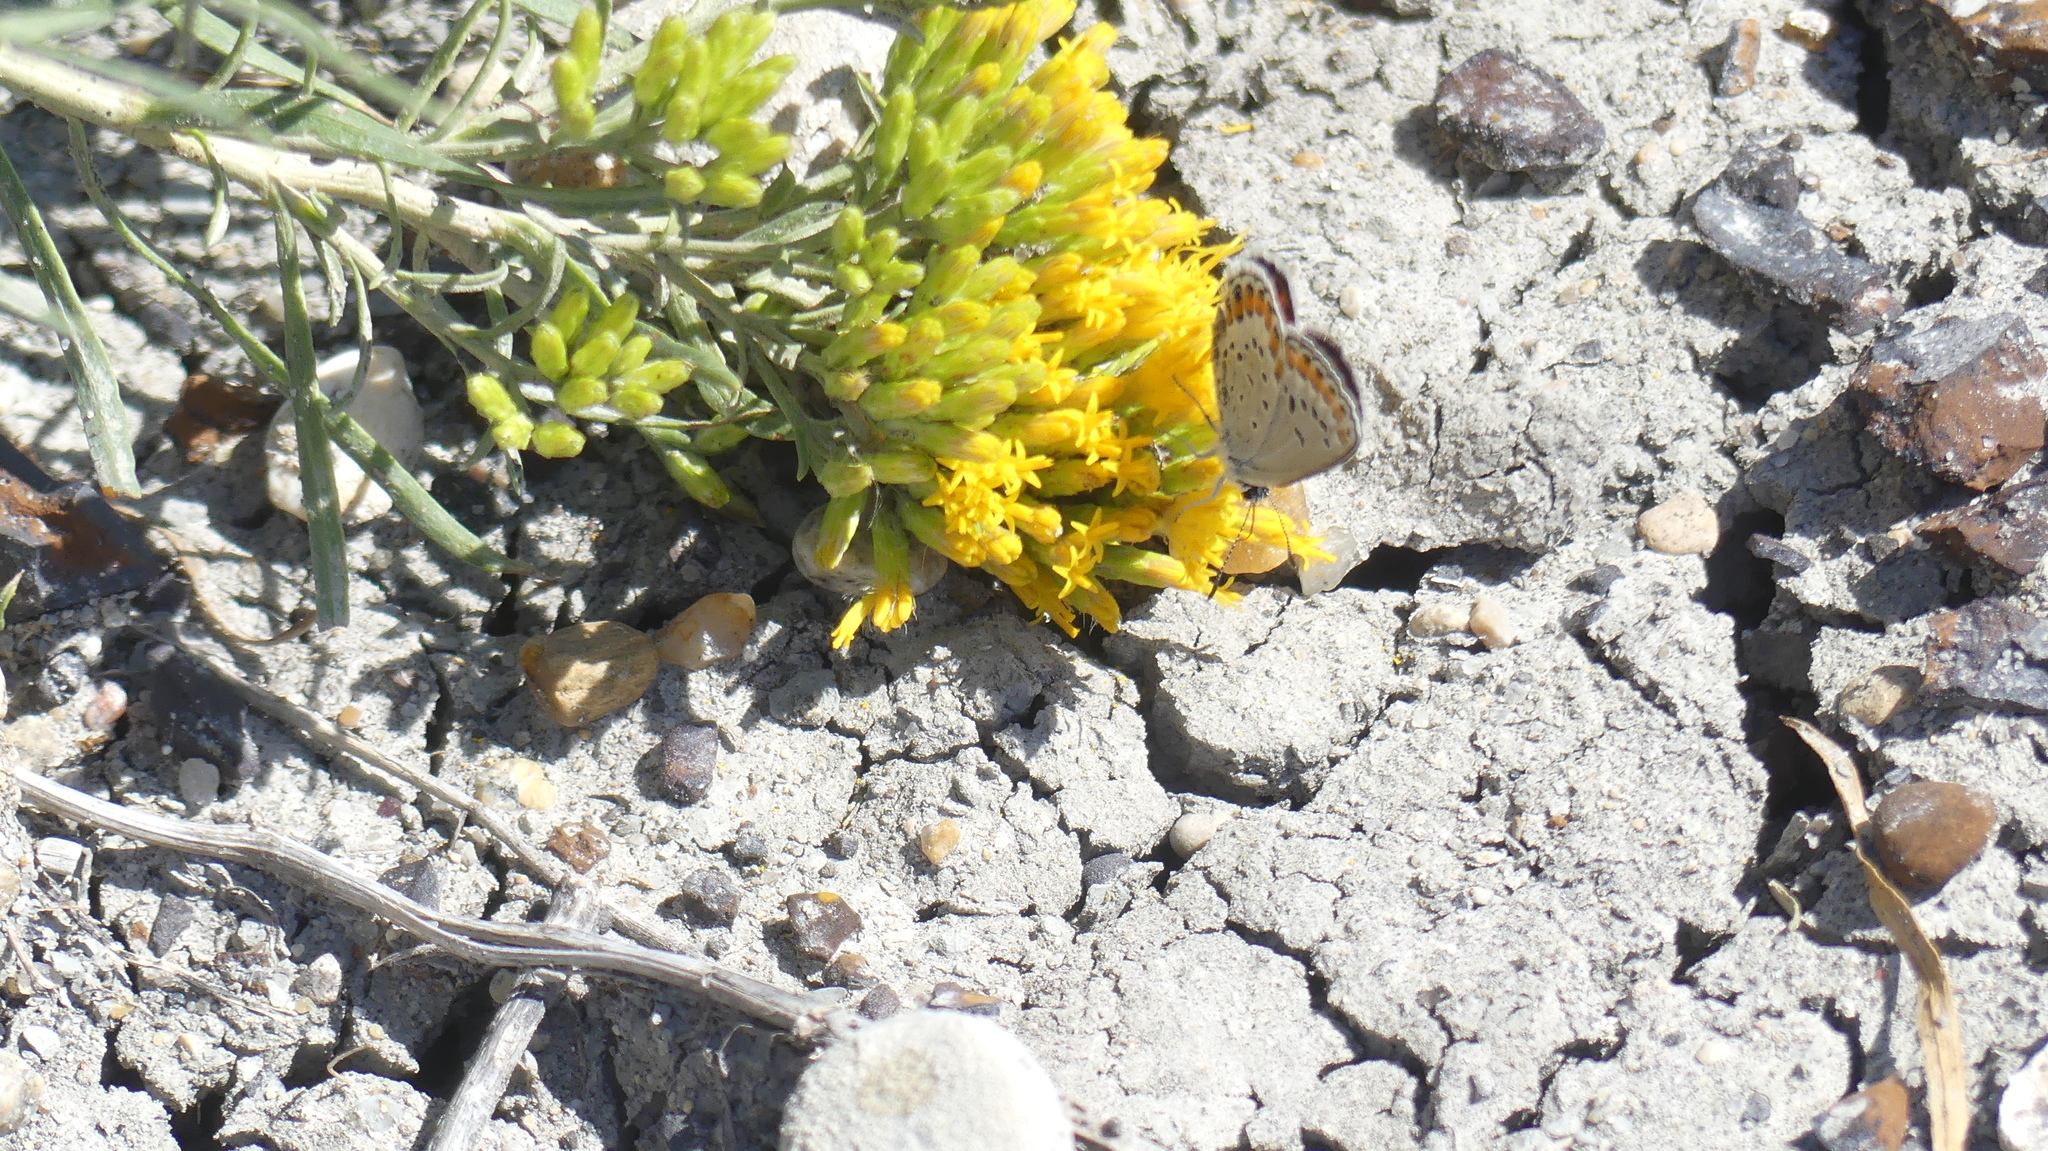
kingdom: Animalia
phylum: Arthropoda
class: Insecta
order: Lepidoptera
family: Lycaenidae
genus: Lycaeides
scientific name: Lycaeides melissa
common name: Melissa blue
